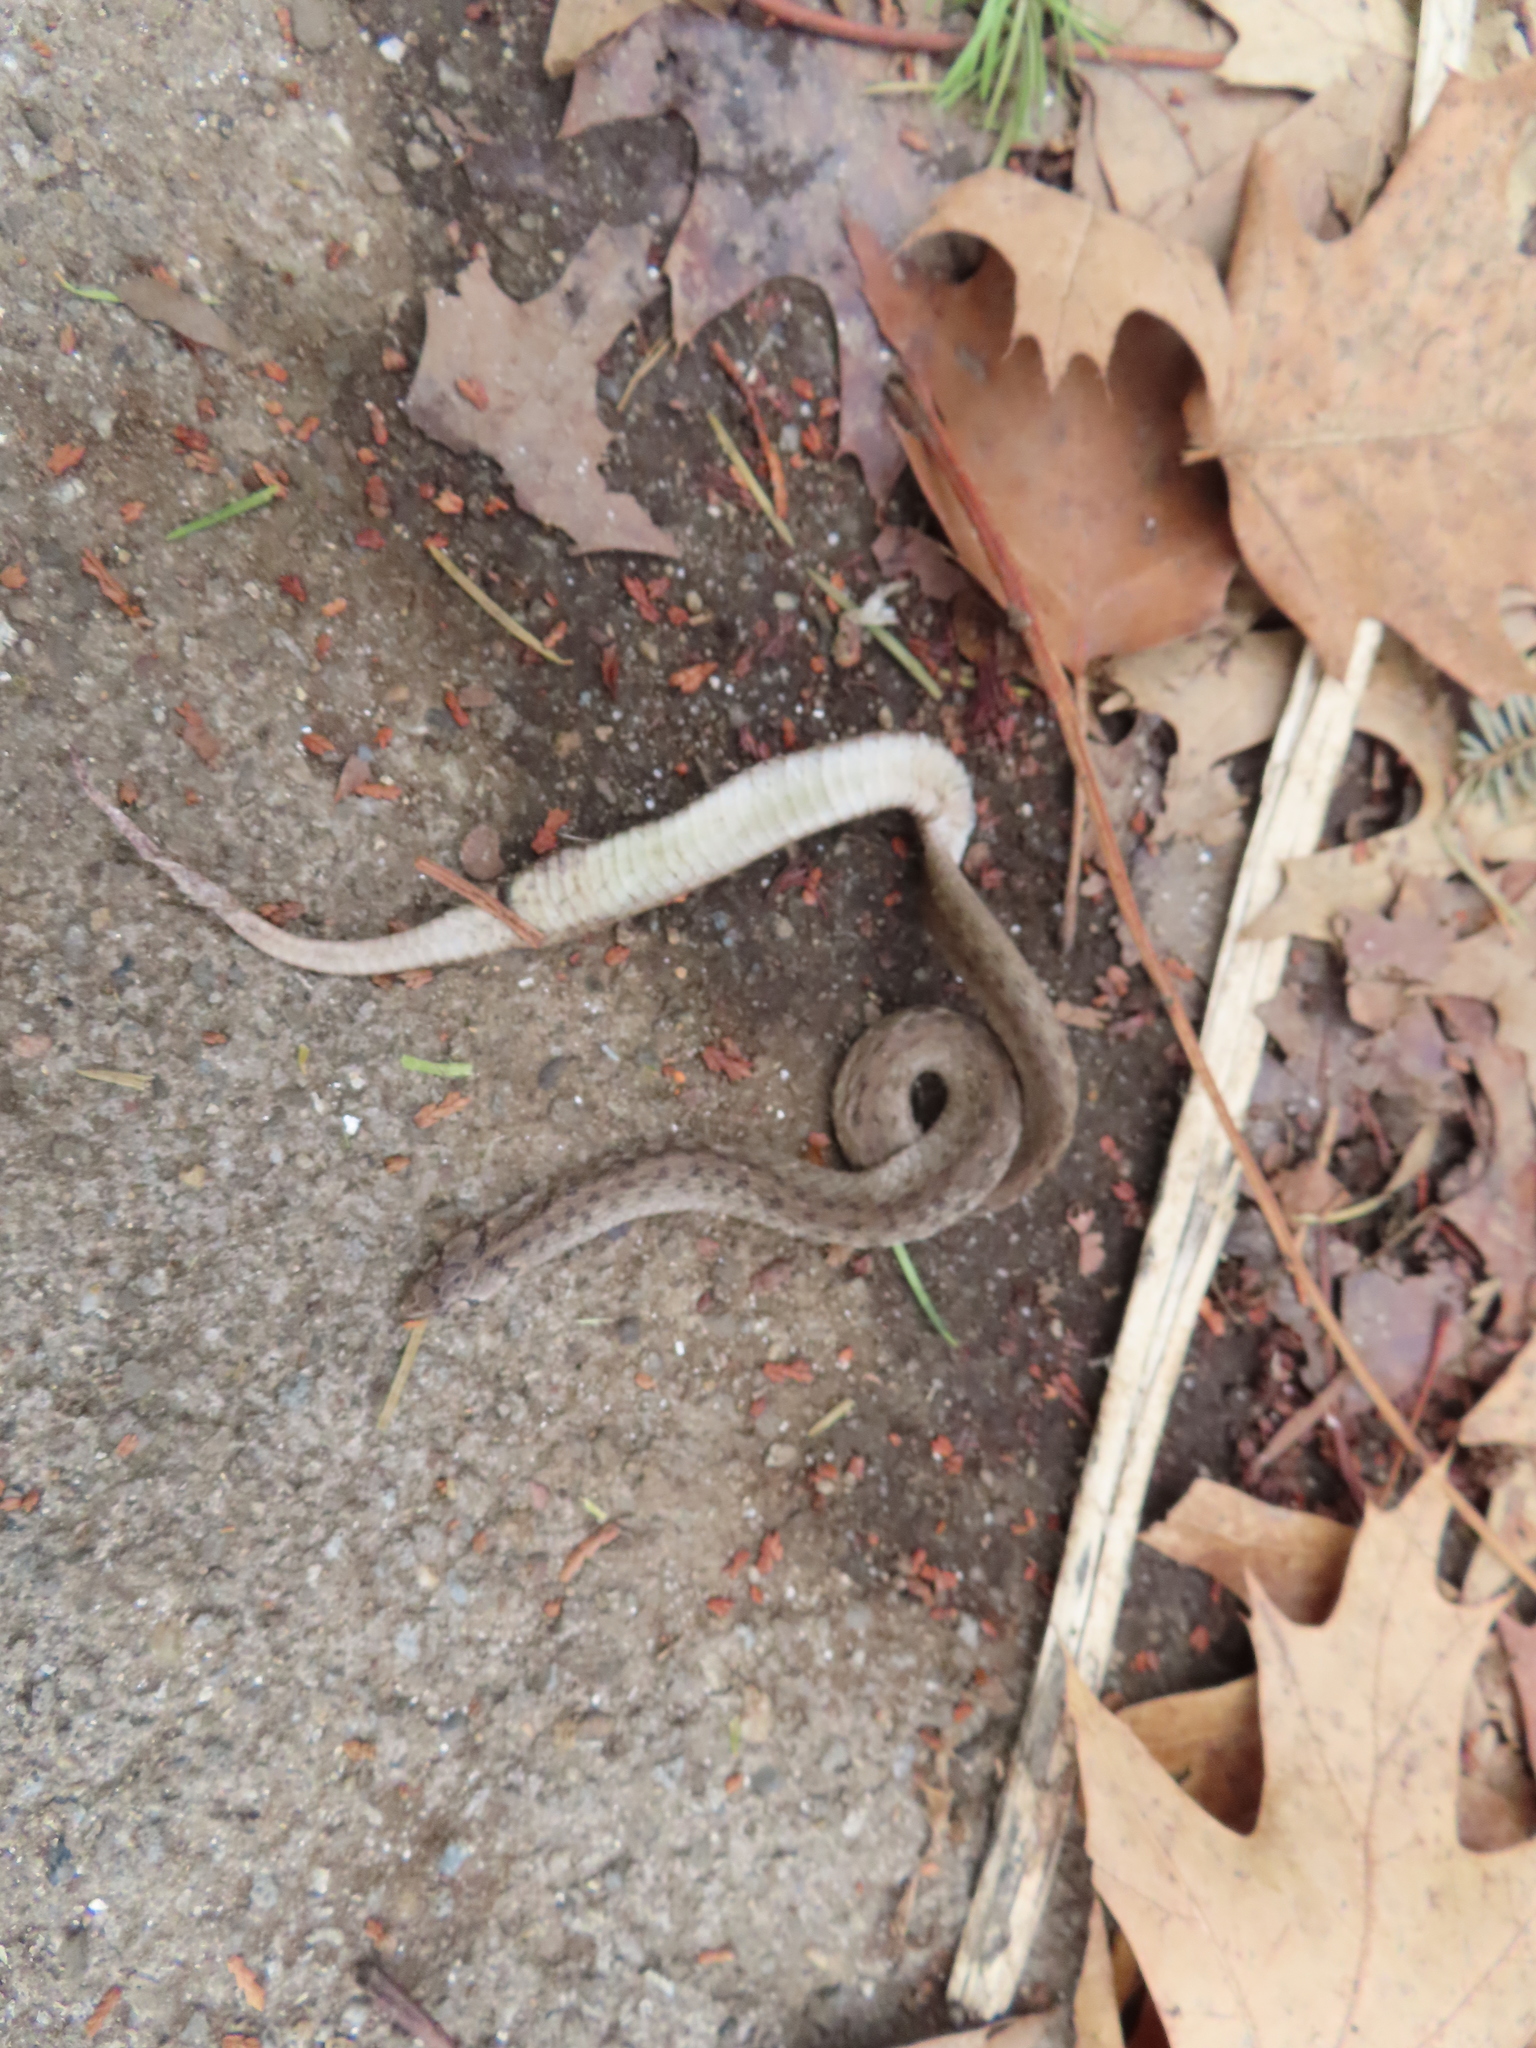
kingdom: Animalia
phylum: Chordata
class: Squamata
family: Colubridae
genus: Storeria
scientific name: Storeria dekayi
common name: (dekay’s) brown snake
